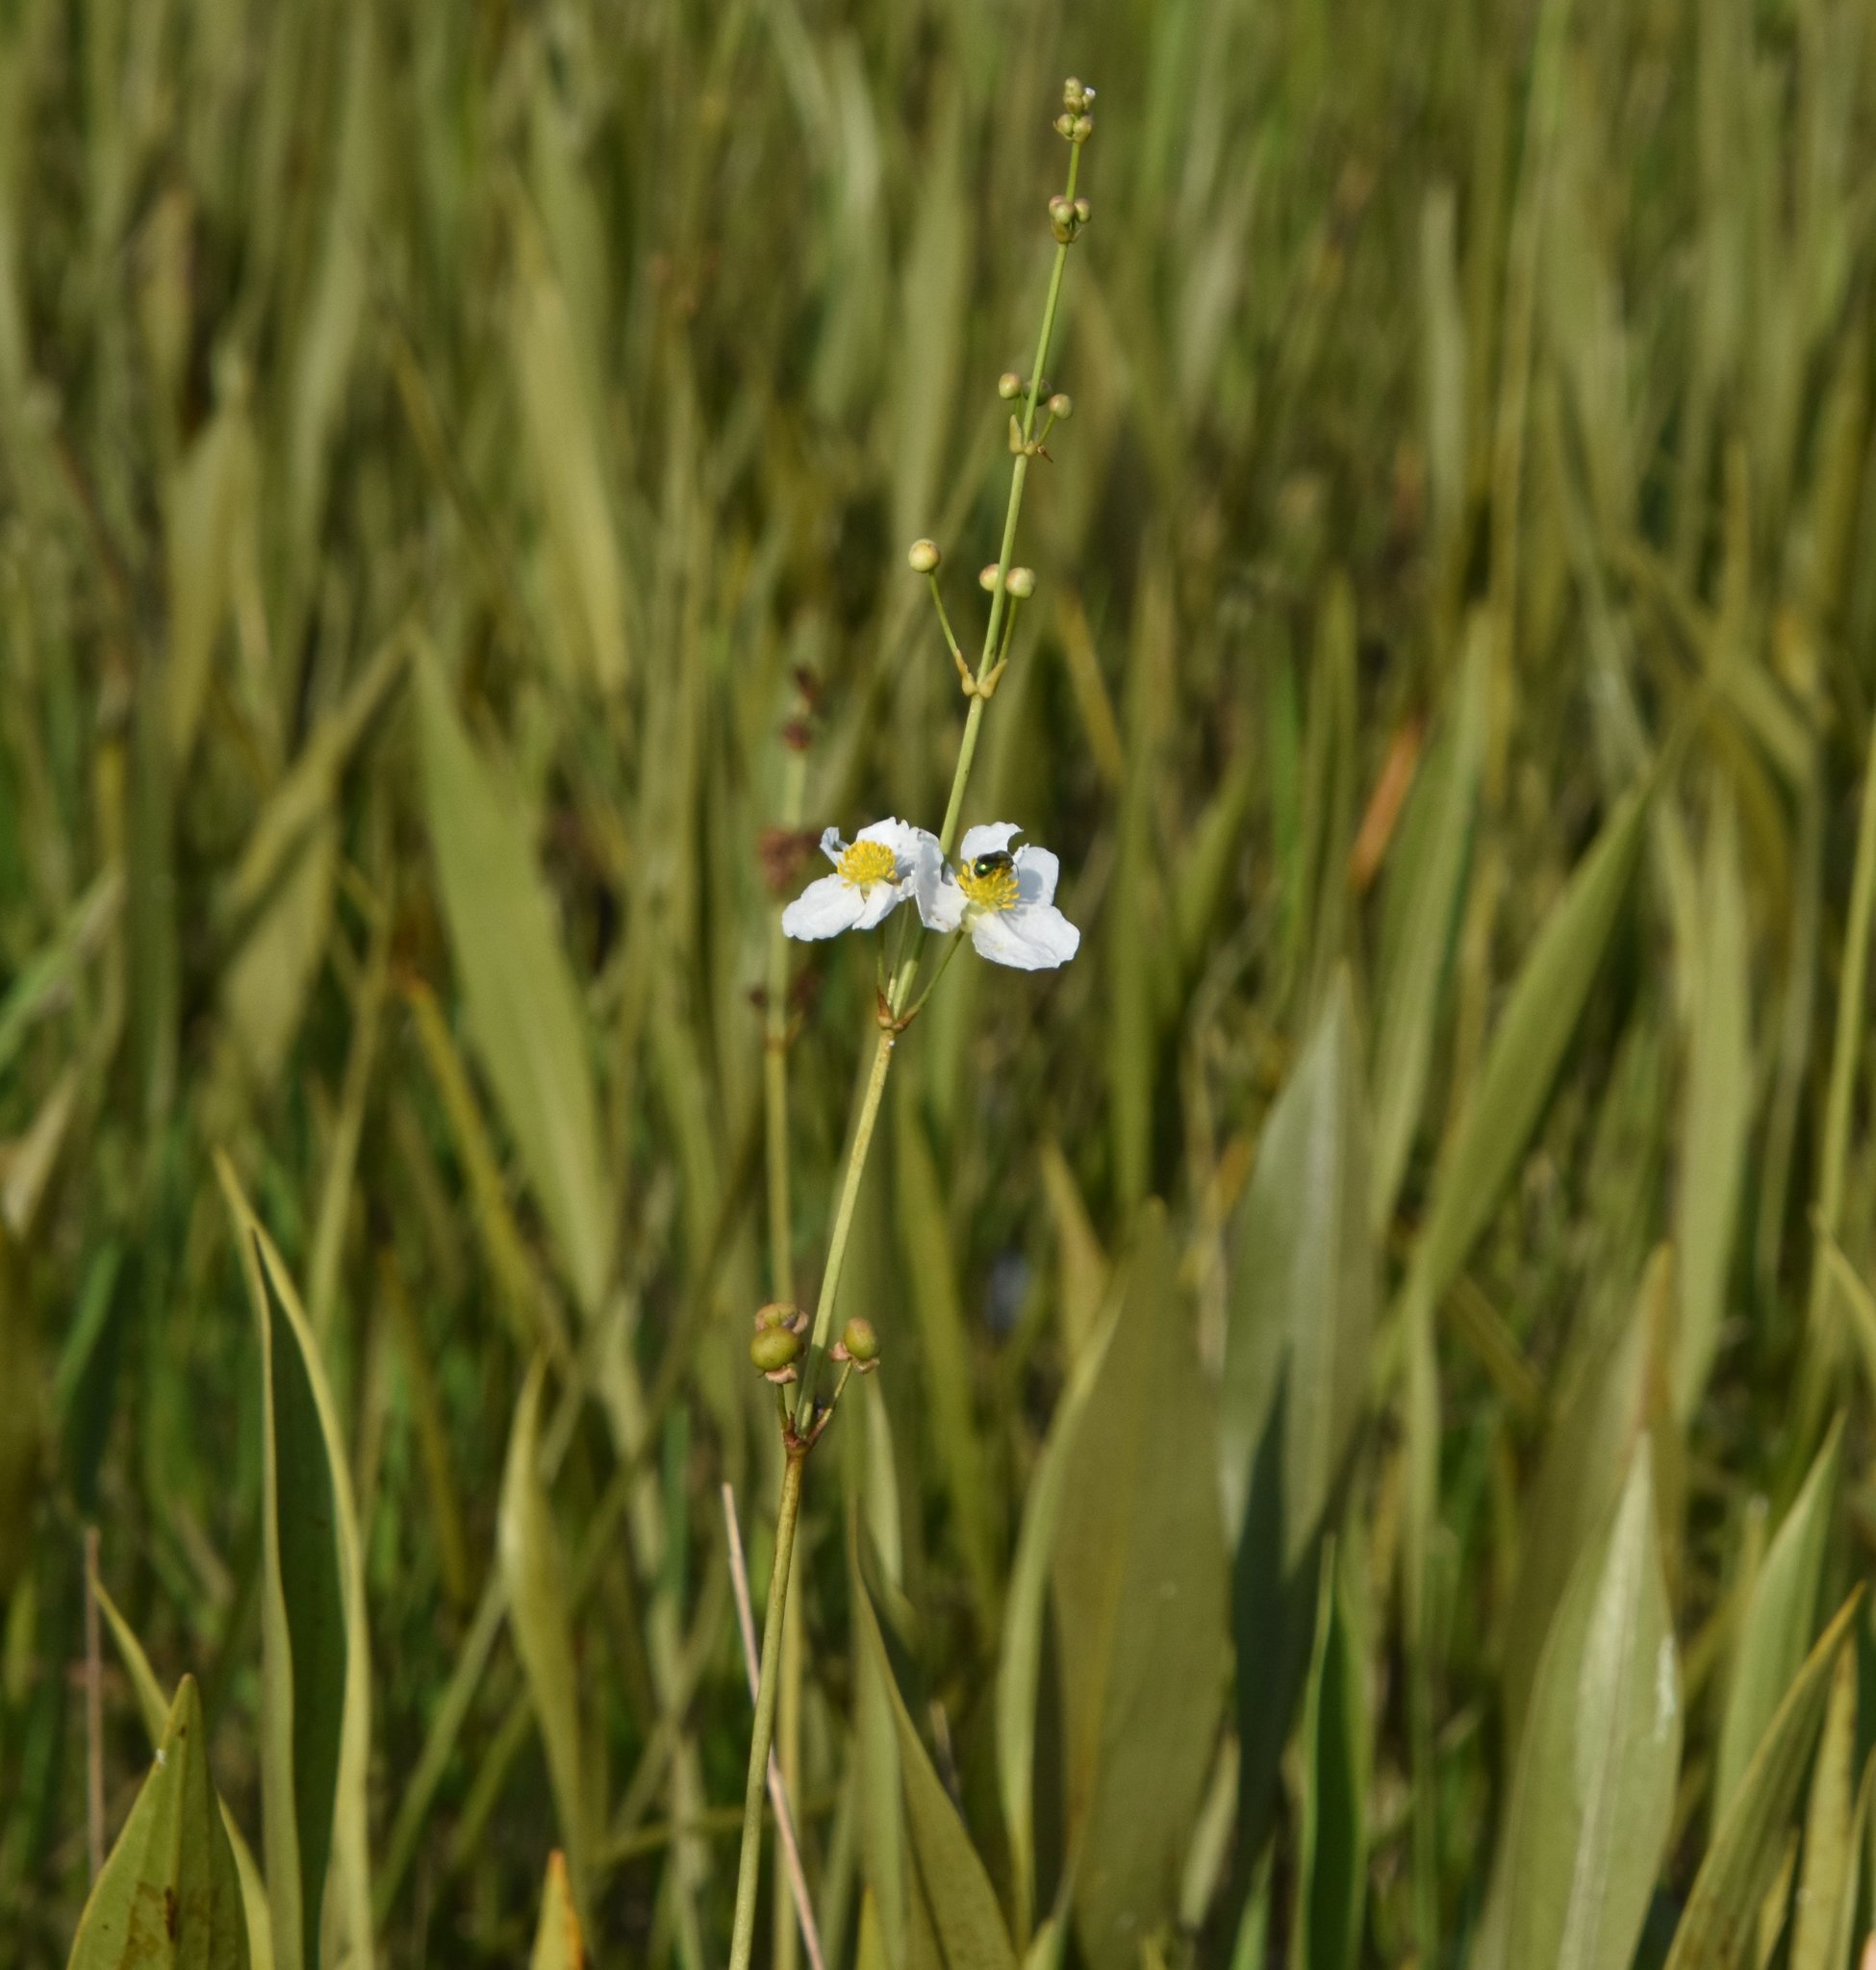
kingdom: Plantae
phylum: Tracheophyta
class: Liliopsida
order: Alismatales
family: Alismataceae
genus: Sagittaria
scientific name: Sagittaria lancifolia
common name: Lance-leaf arrowhead
